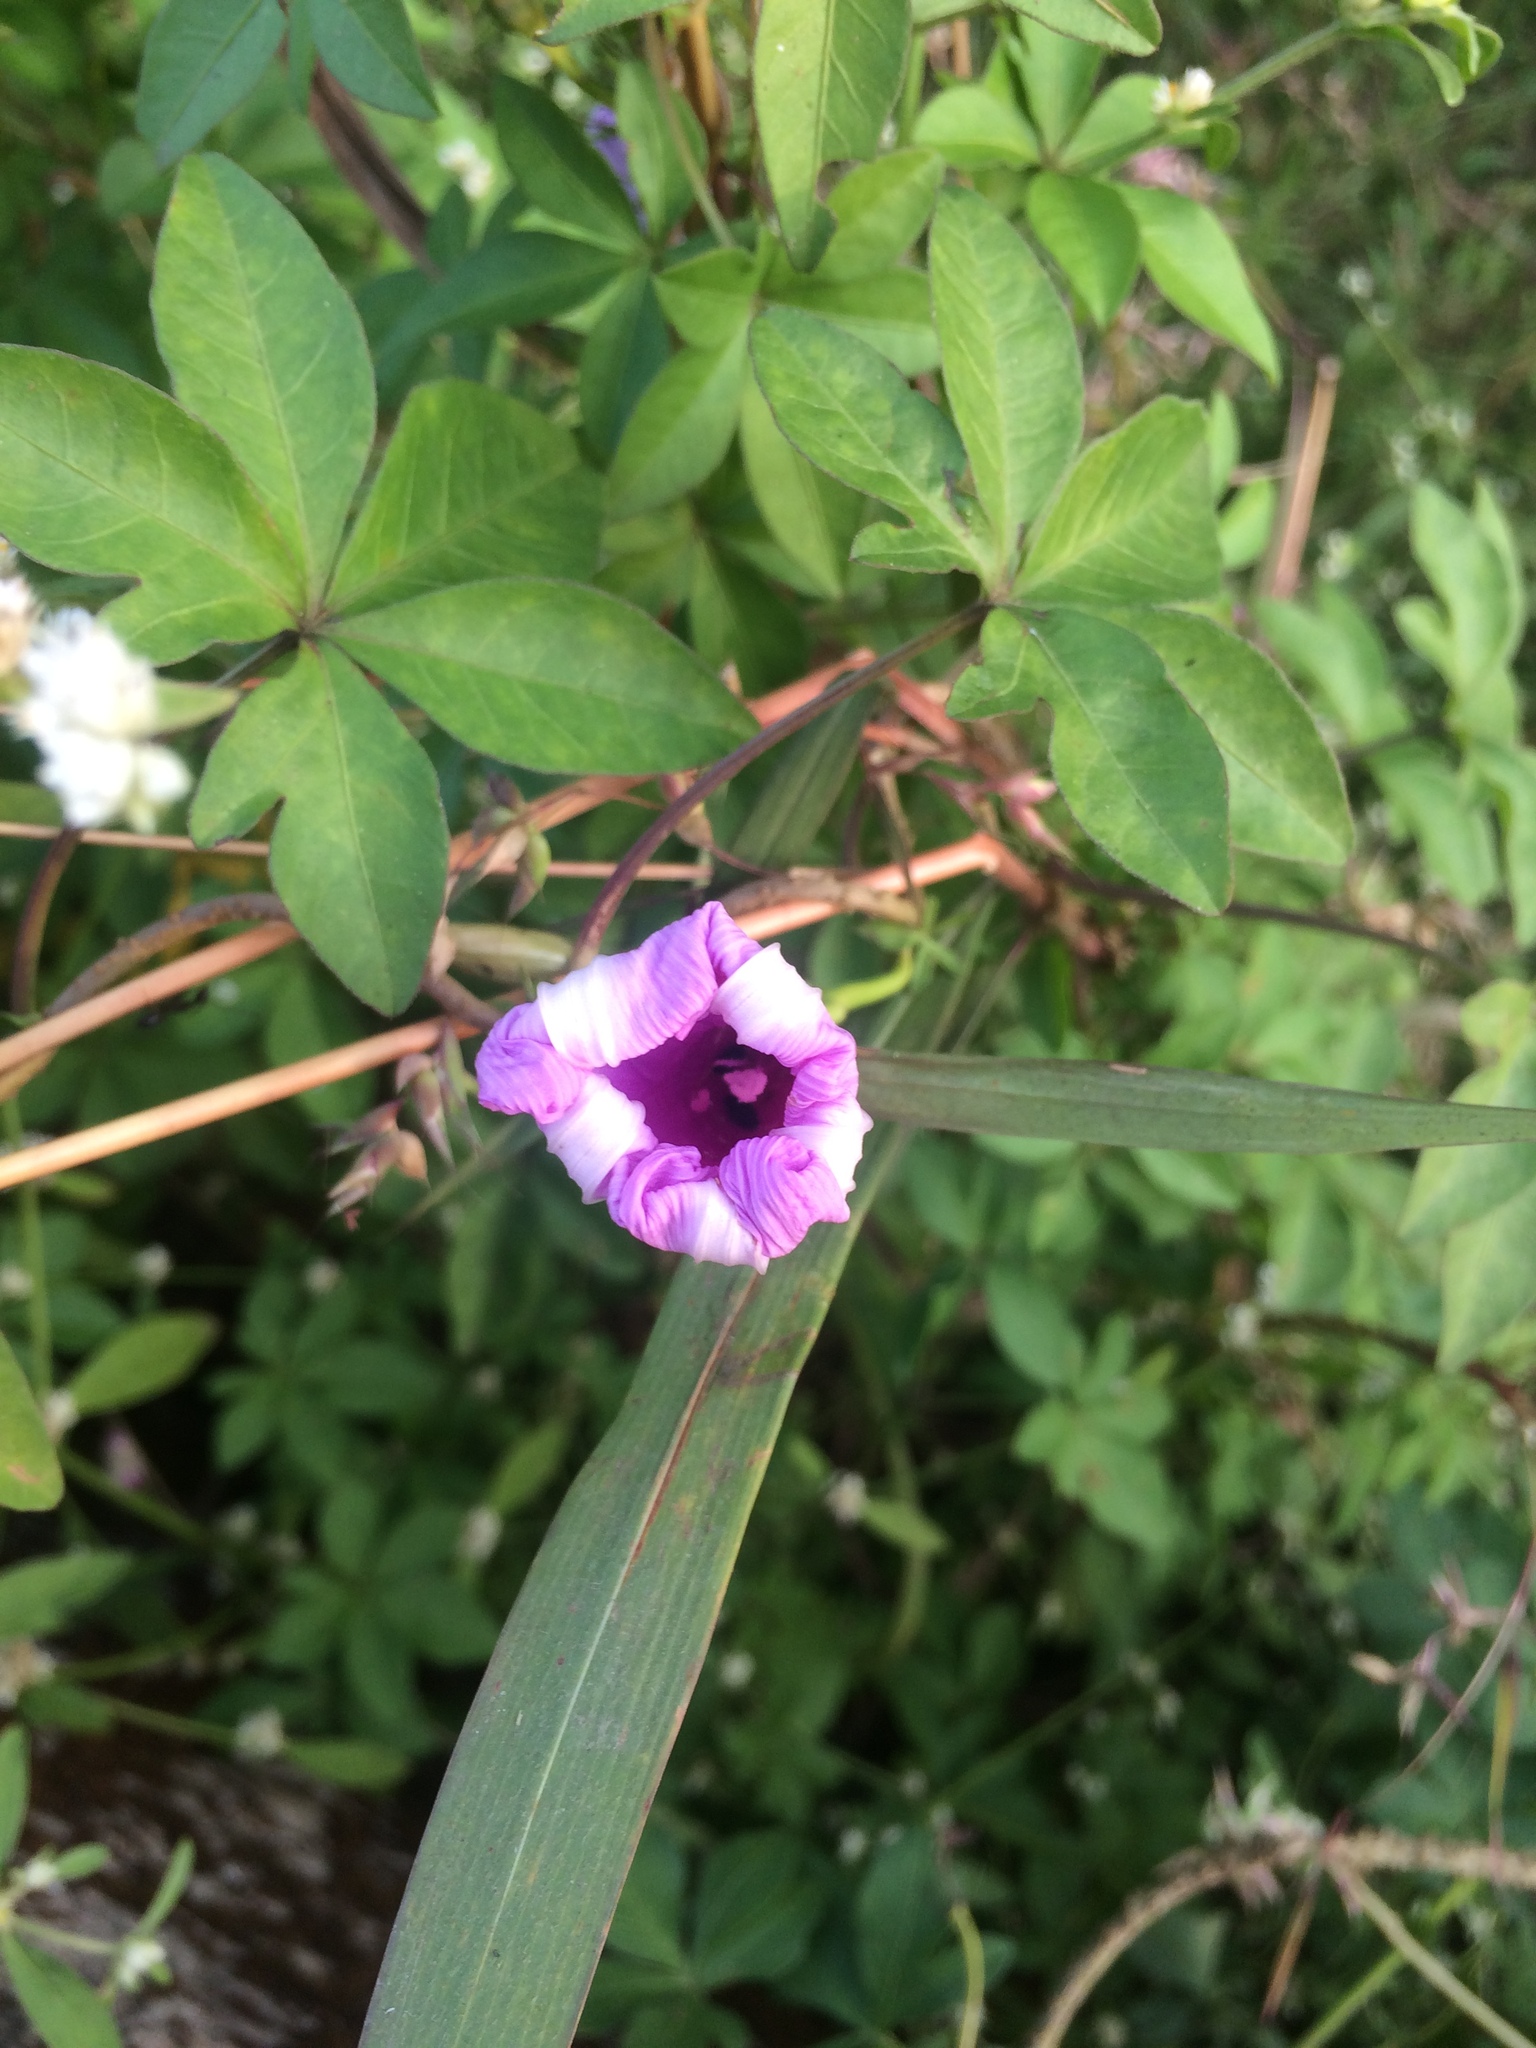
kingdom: Plantae
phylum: Tracheophyta
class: Magnoliopsida
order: Solanales
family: Convolvulaceae
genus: Ipomoea
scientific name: Ipomoea cairica
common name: Mile a minute vine
